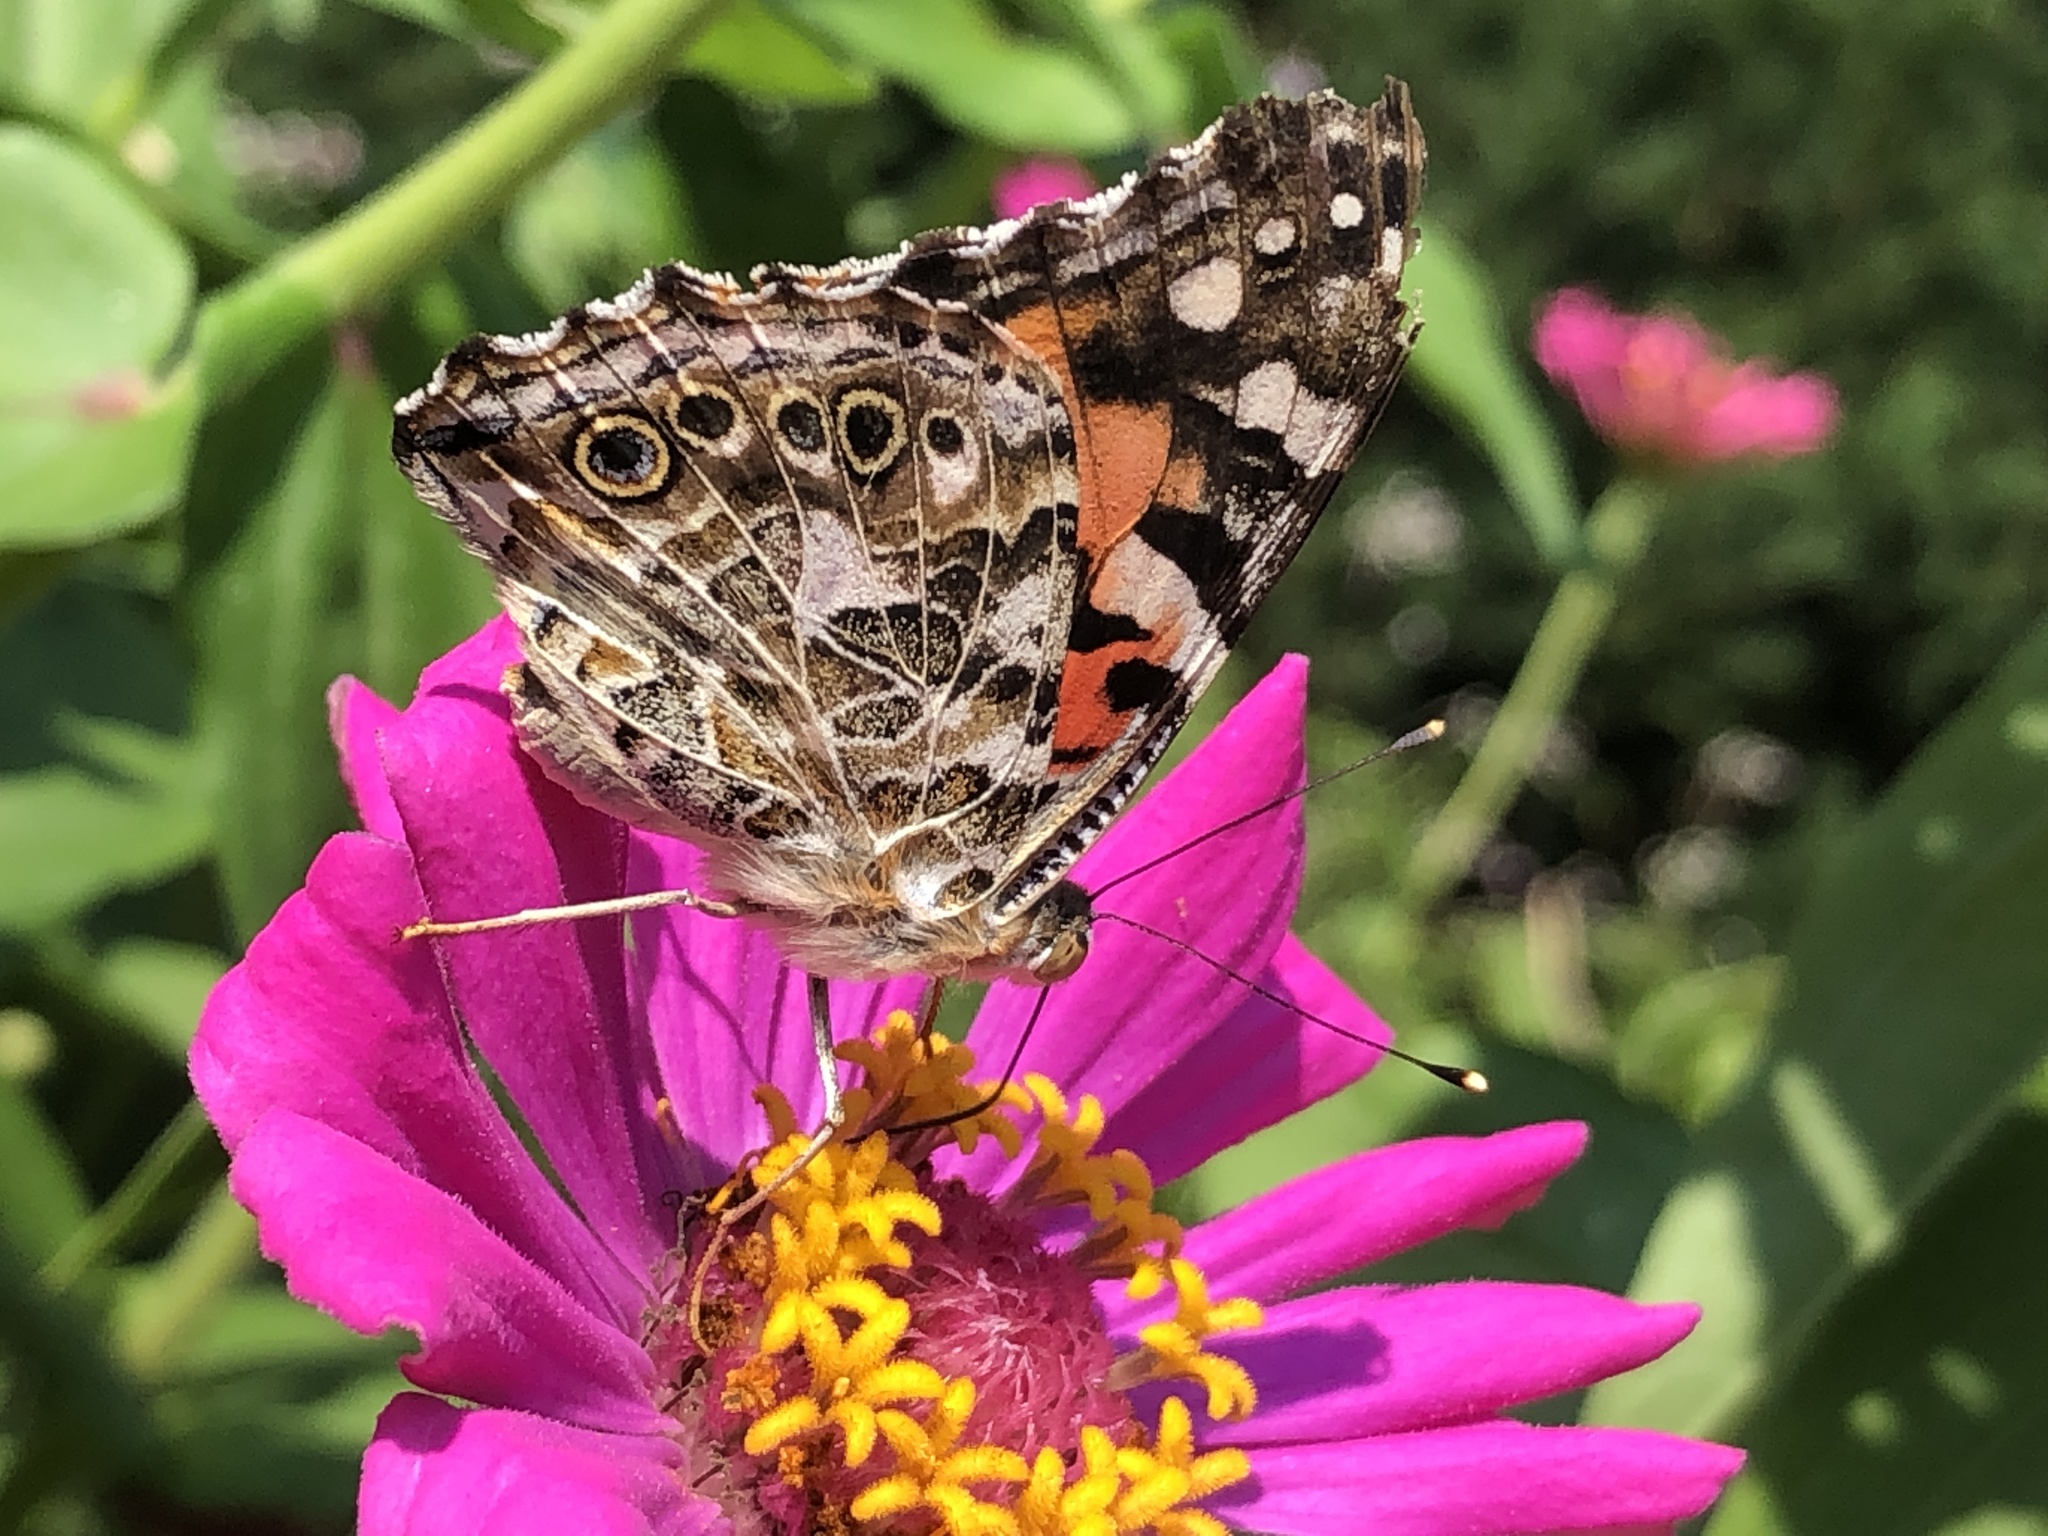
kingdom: Animalia
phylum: Arthropoda
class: Insecta
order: Lepidoptera
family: Nymphalidae
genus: Vanessa
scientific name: Vanessa cardui
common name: Painted lady
